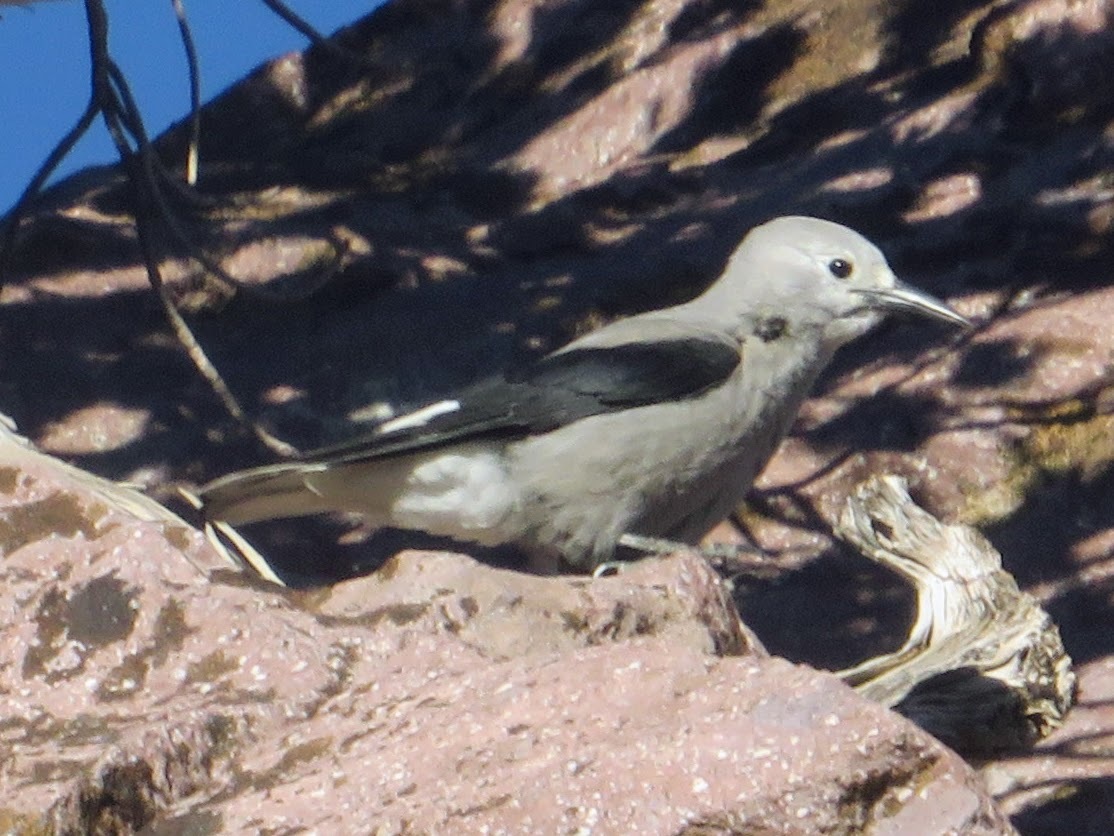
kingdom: Animalia
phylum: Chordata
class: Aves
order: Passeriformes
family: Corvidae
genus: Nucifraga
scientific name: Nucifraga columbiana
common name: Clark's nutcracker
